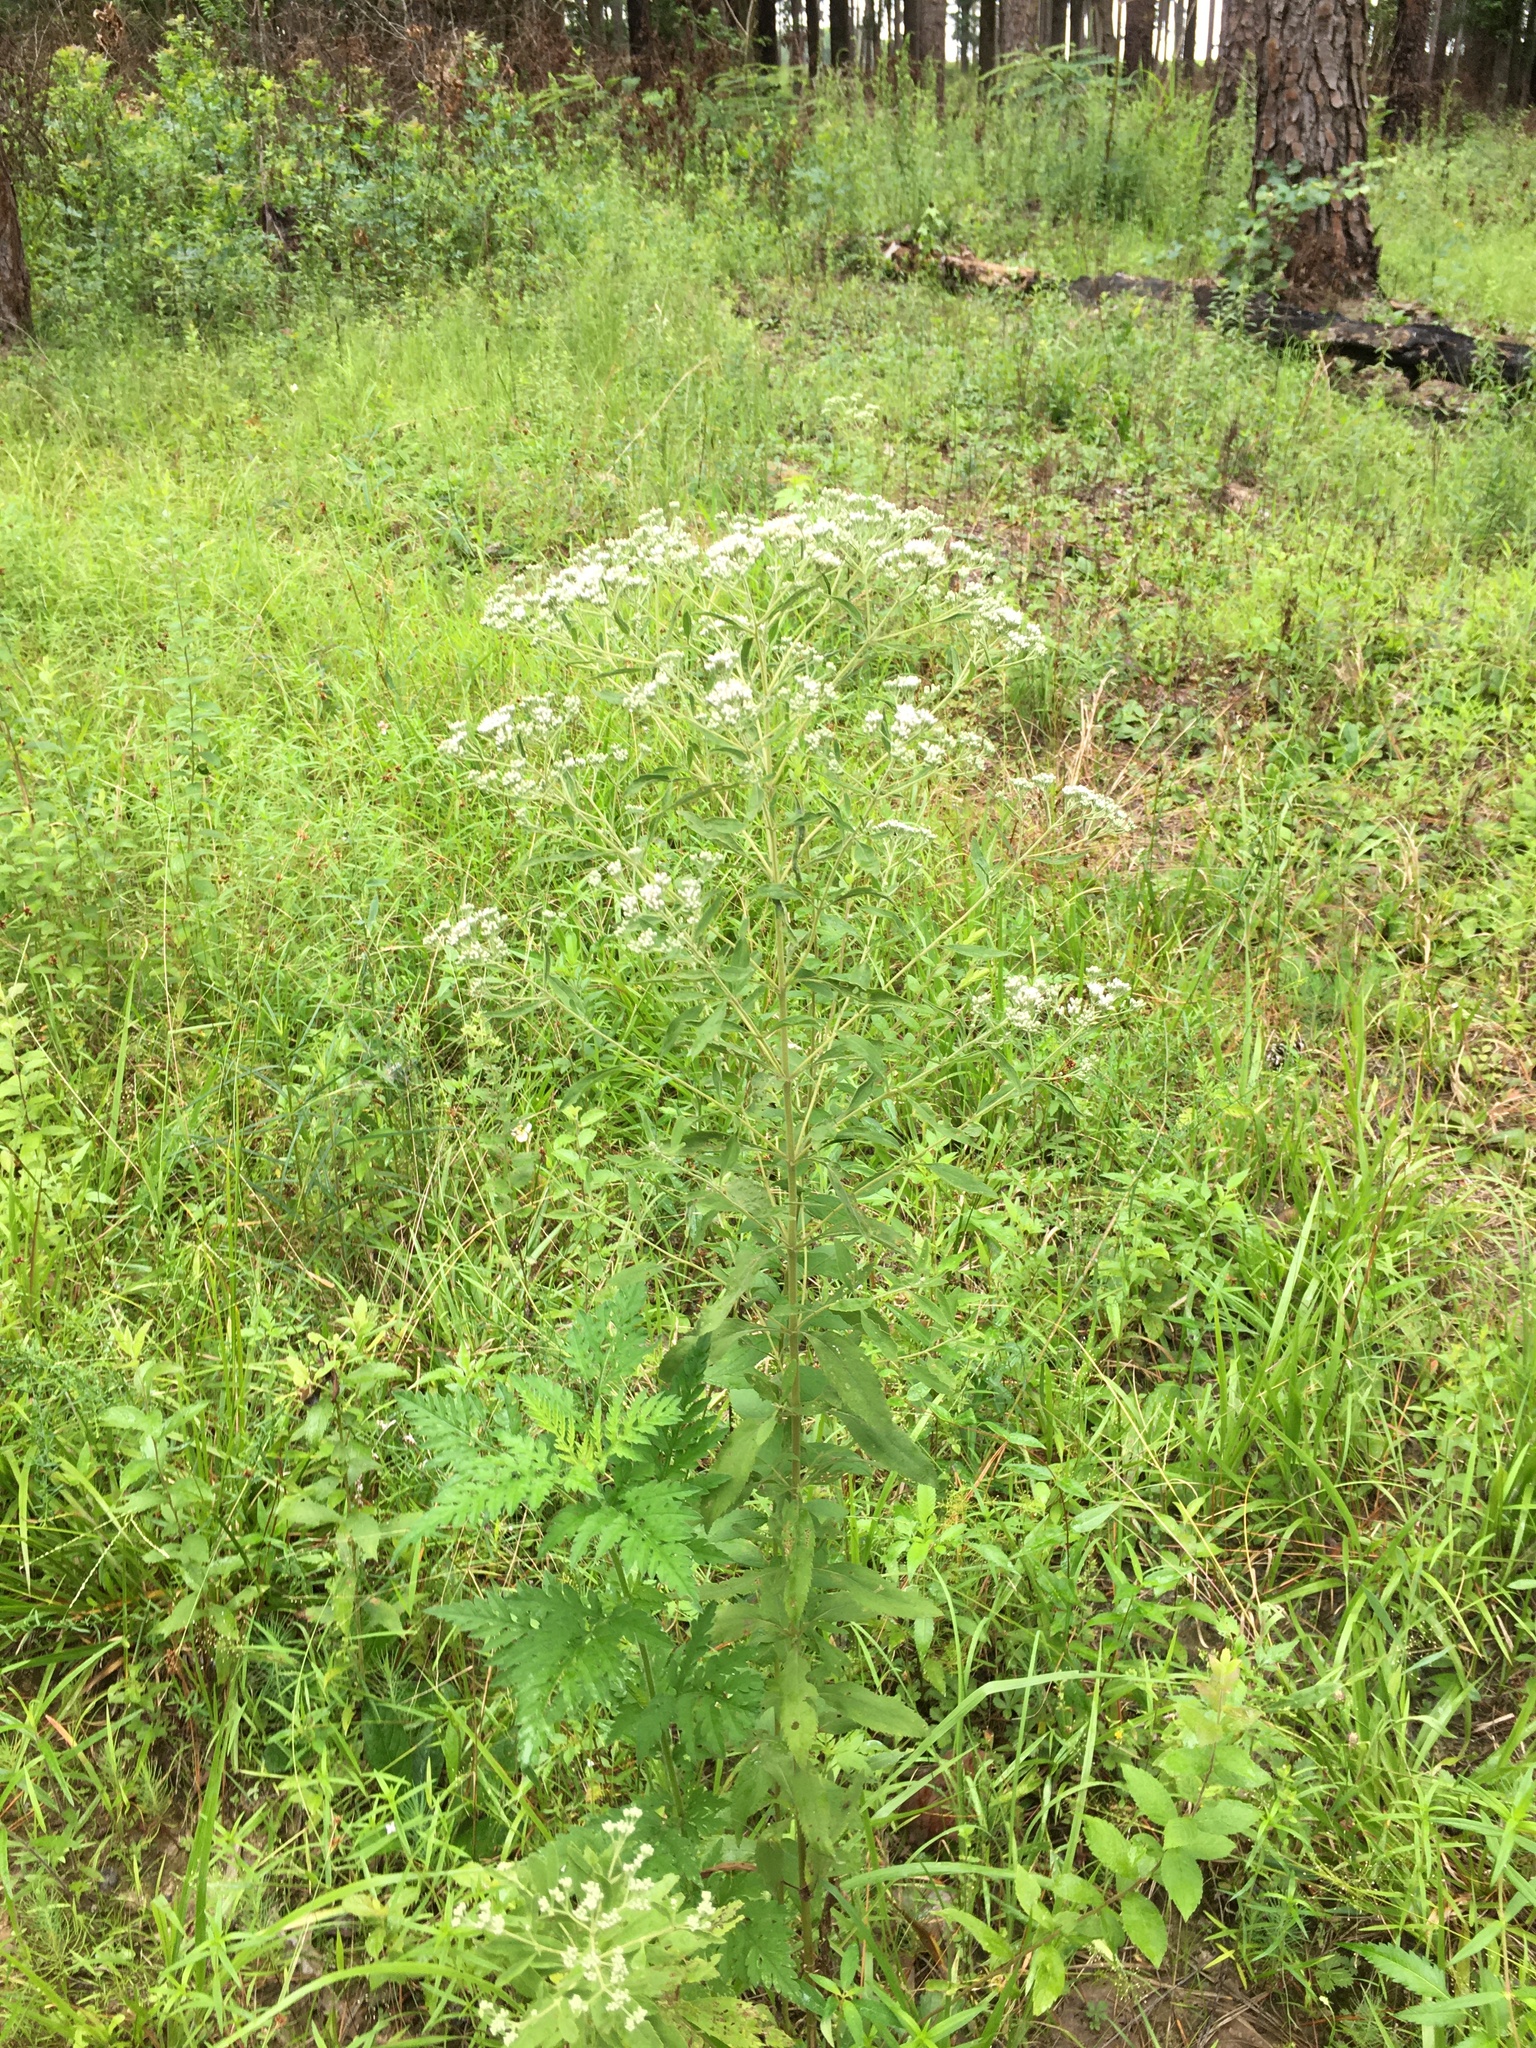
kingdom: Plantae
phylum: Tracheophyta
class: Magnoliopsida
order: Asterales
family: Asteraceae
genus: Eupatorium
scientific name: Eupatorium semiserratum
